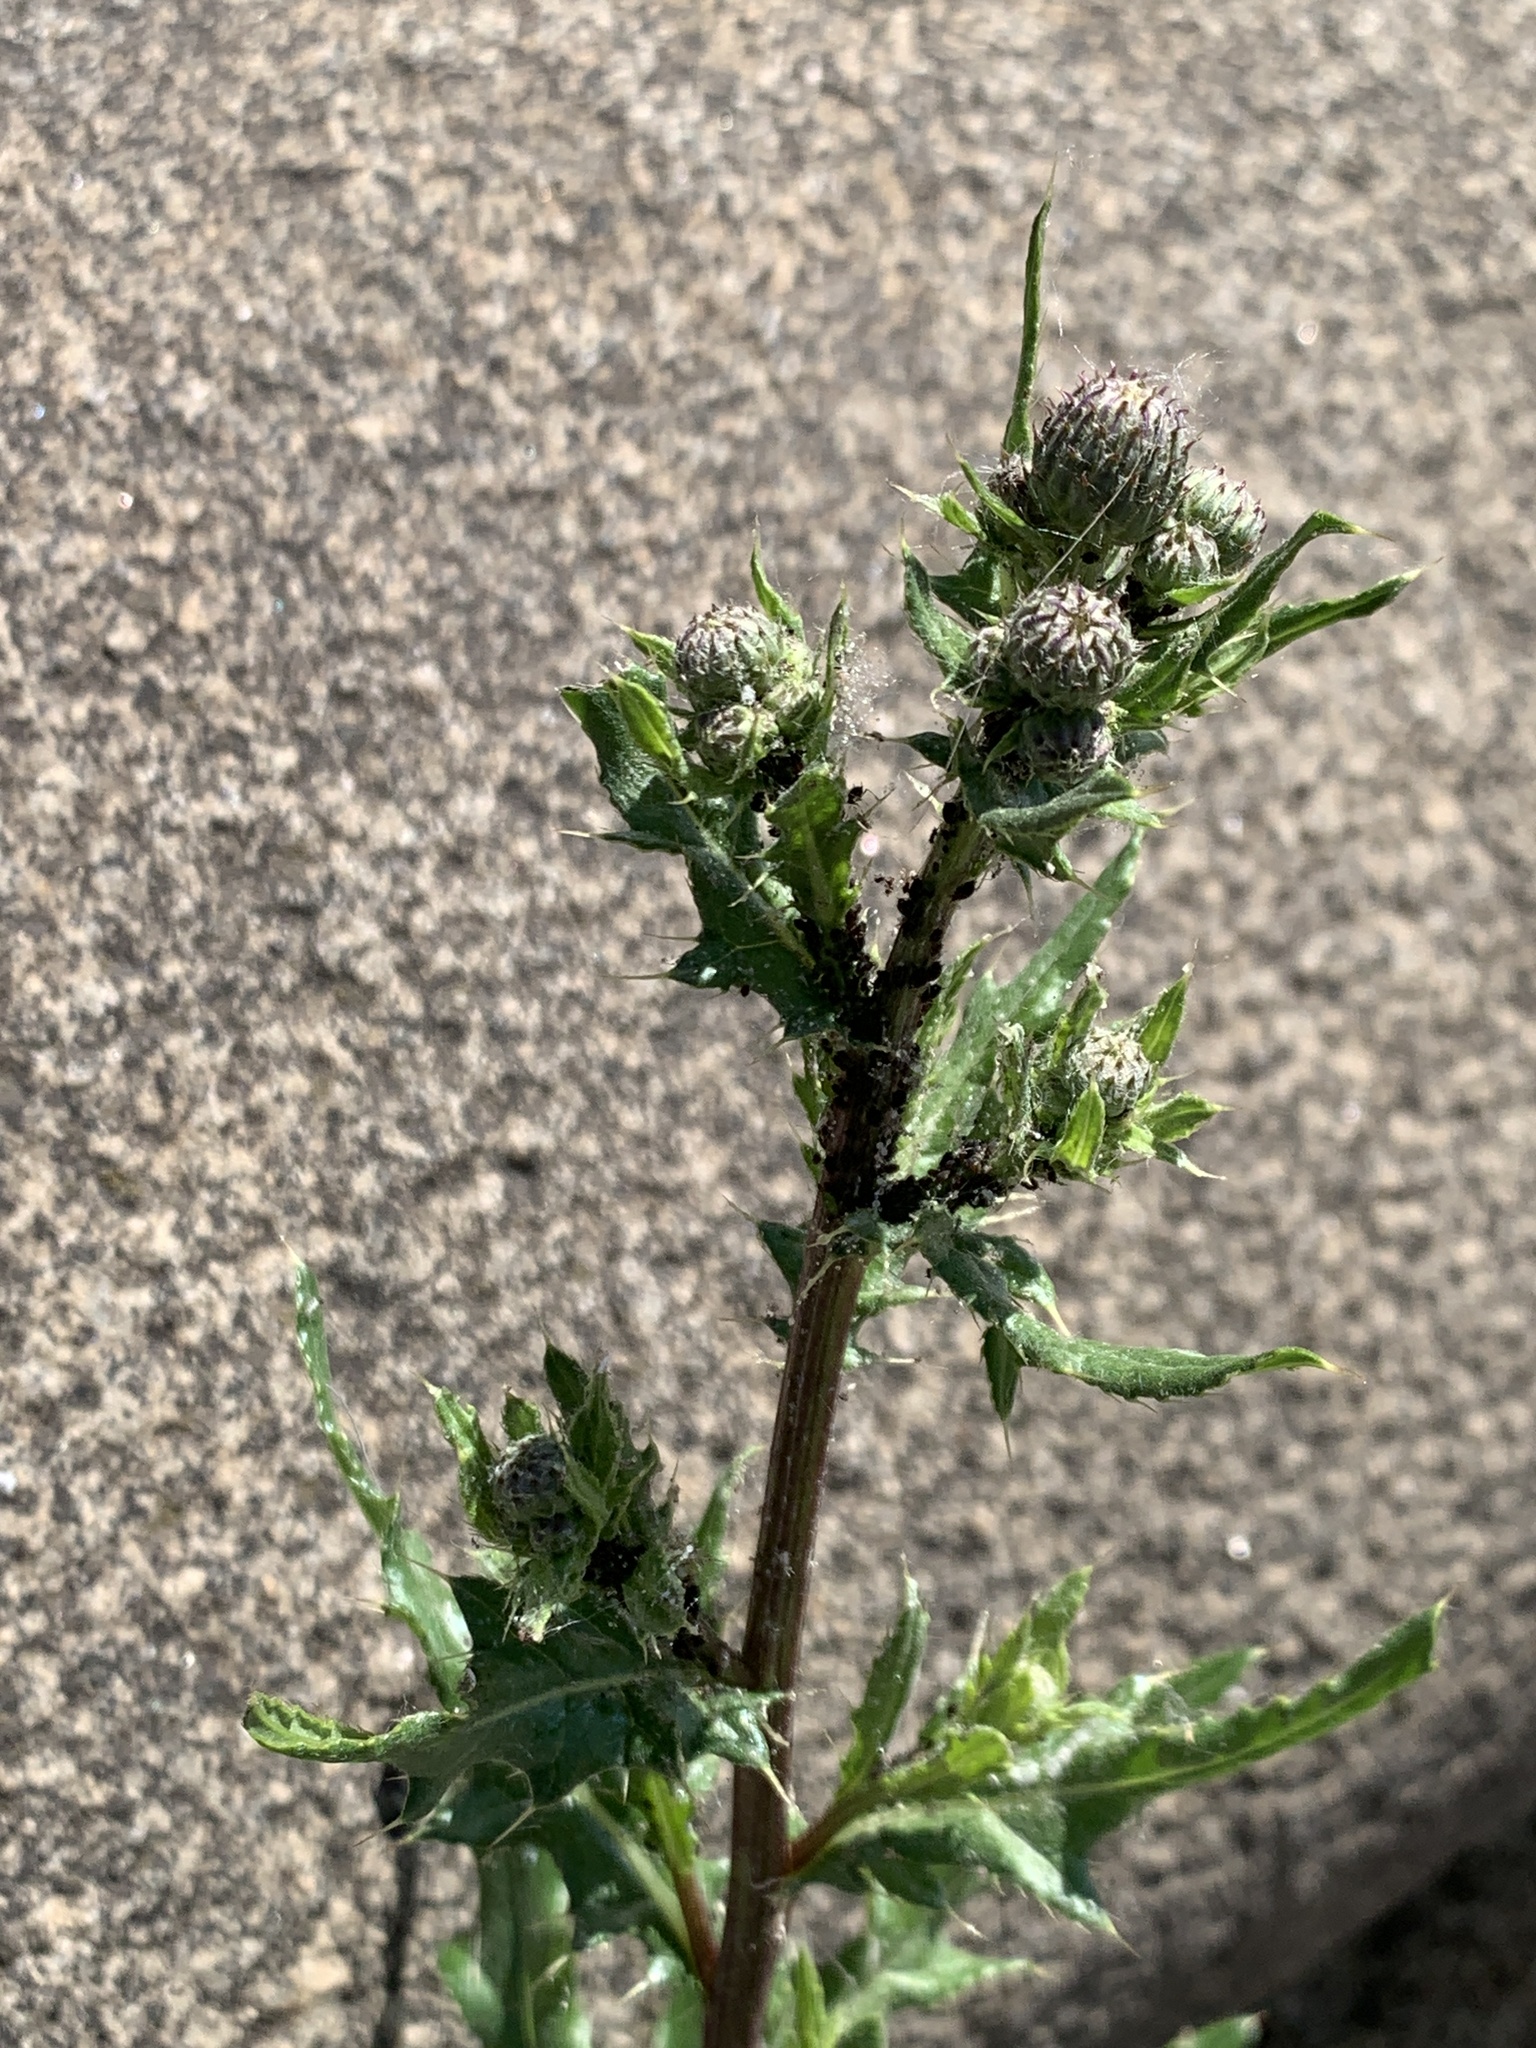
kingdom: Plantae
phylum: Tracheophyta
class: Magnoliopsida
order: Asterales
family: Asteraceae
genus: Cirsium
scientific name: Cirsium arvense
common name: Creeping thistle
